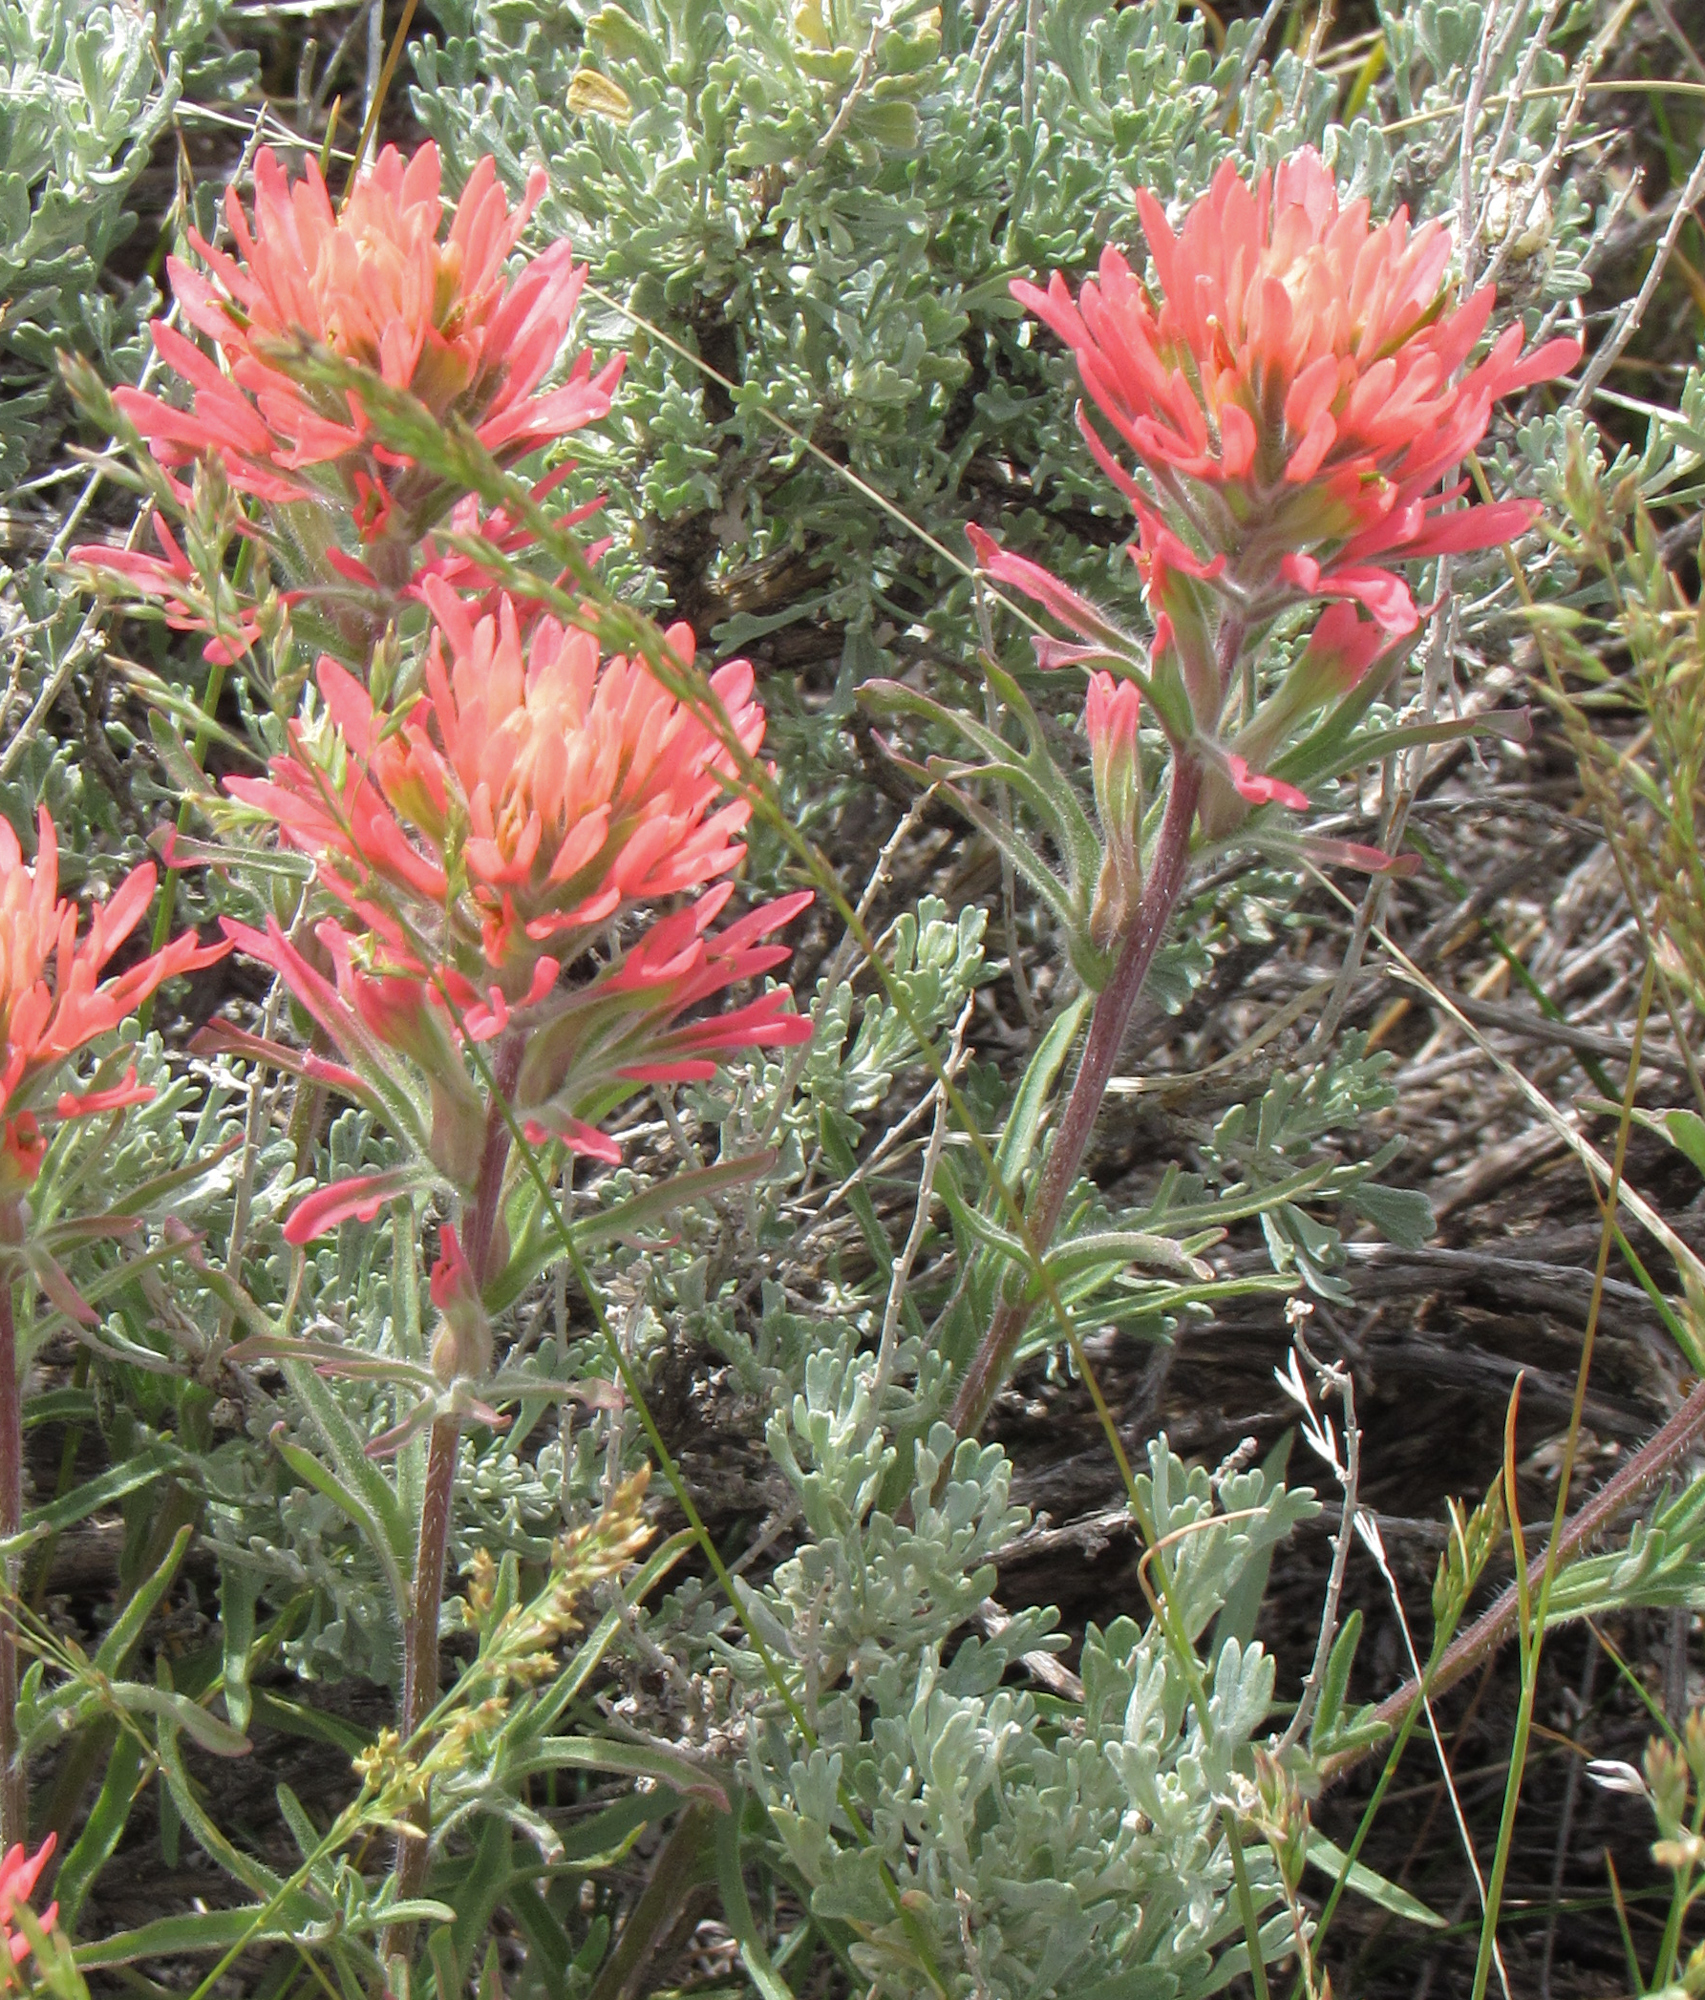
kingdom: Plantae
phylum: Tracheophyta
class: Magnoliopsida
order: Lamiales
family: Orobanchaceae
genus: Castilleja
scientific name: Castilleja angustifolia
